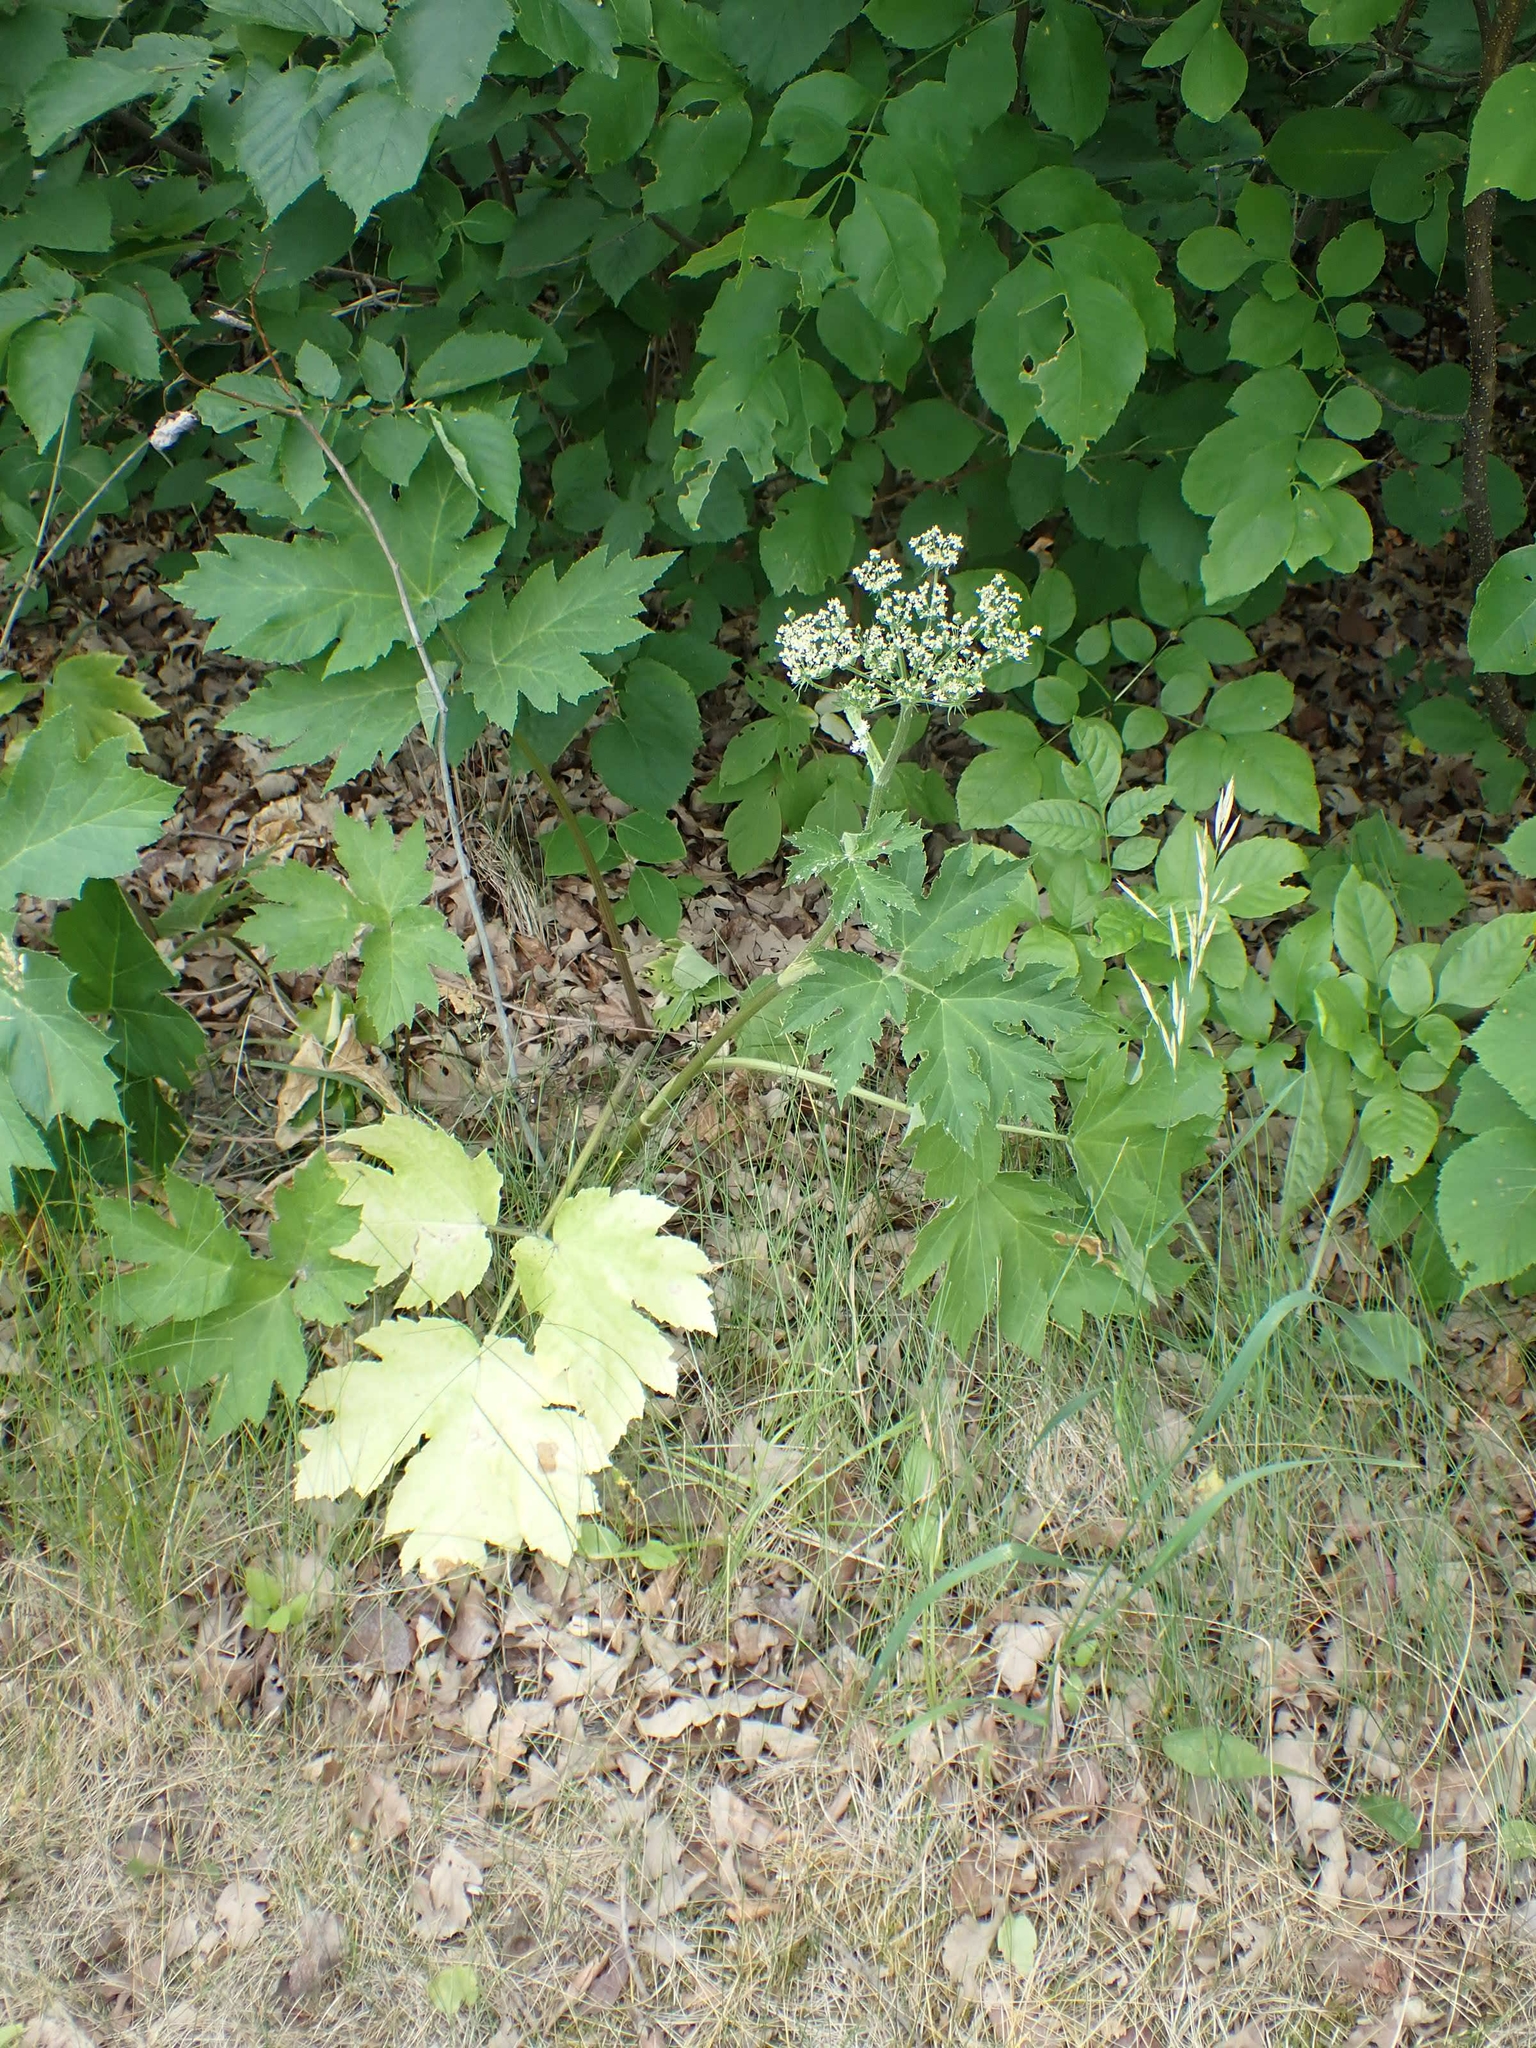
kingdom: Plantae
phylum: Tracheophyta
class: Magnoliopsida
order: Apiales
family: Apiaceae
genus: Heracleum
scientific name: Heracleum maximum
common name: American cow parsnip
